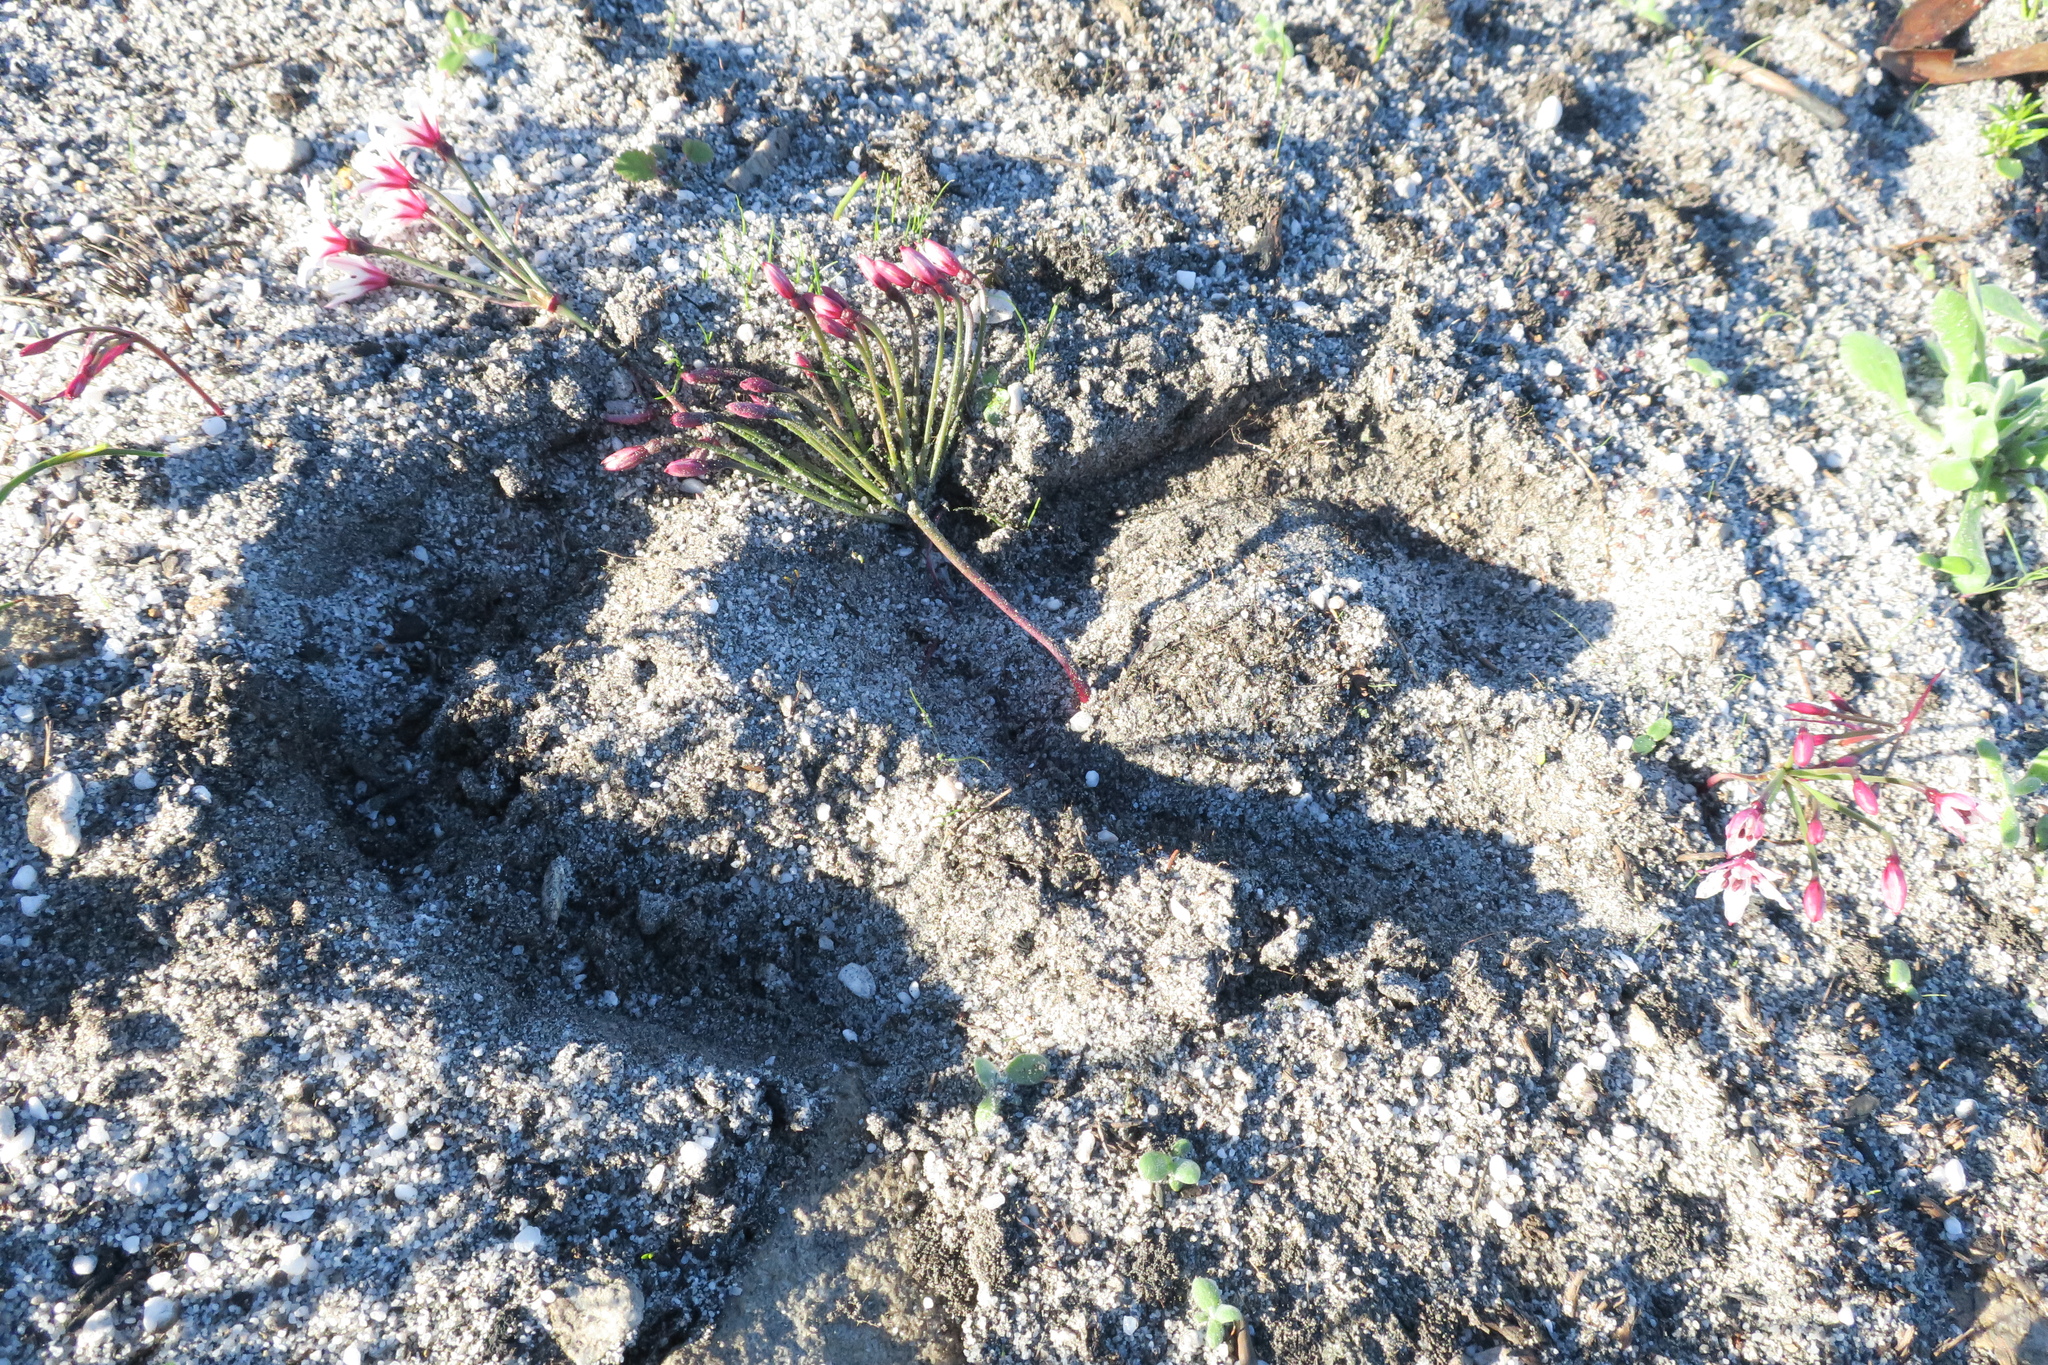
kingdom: Plantae
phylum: Tracheophyta
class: Liliopsida
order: Asparagales
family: Amaryllidaceae
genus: Hessea
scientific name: Hessea cinnamomea
